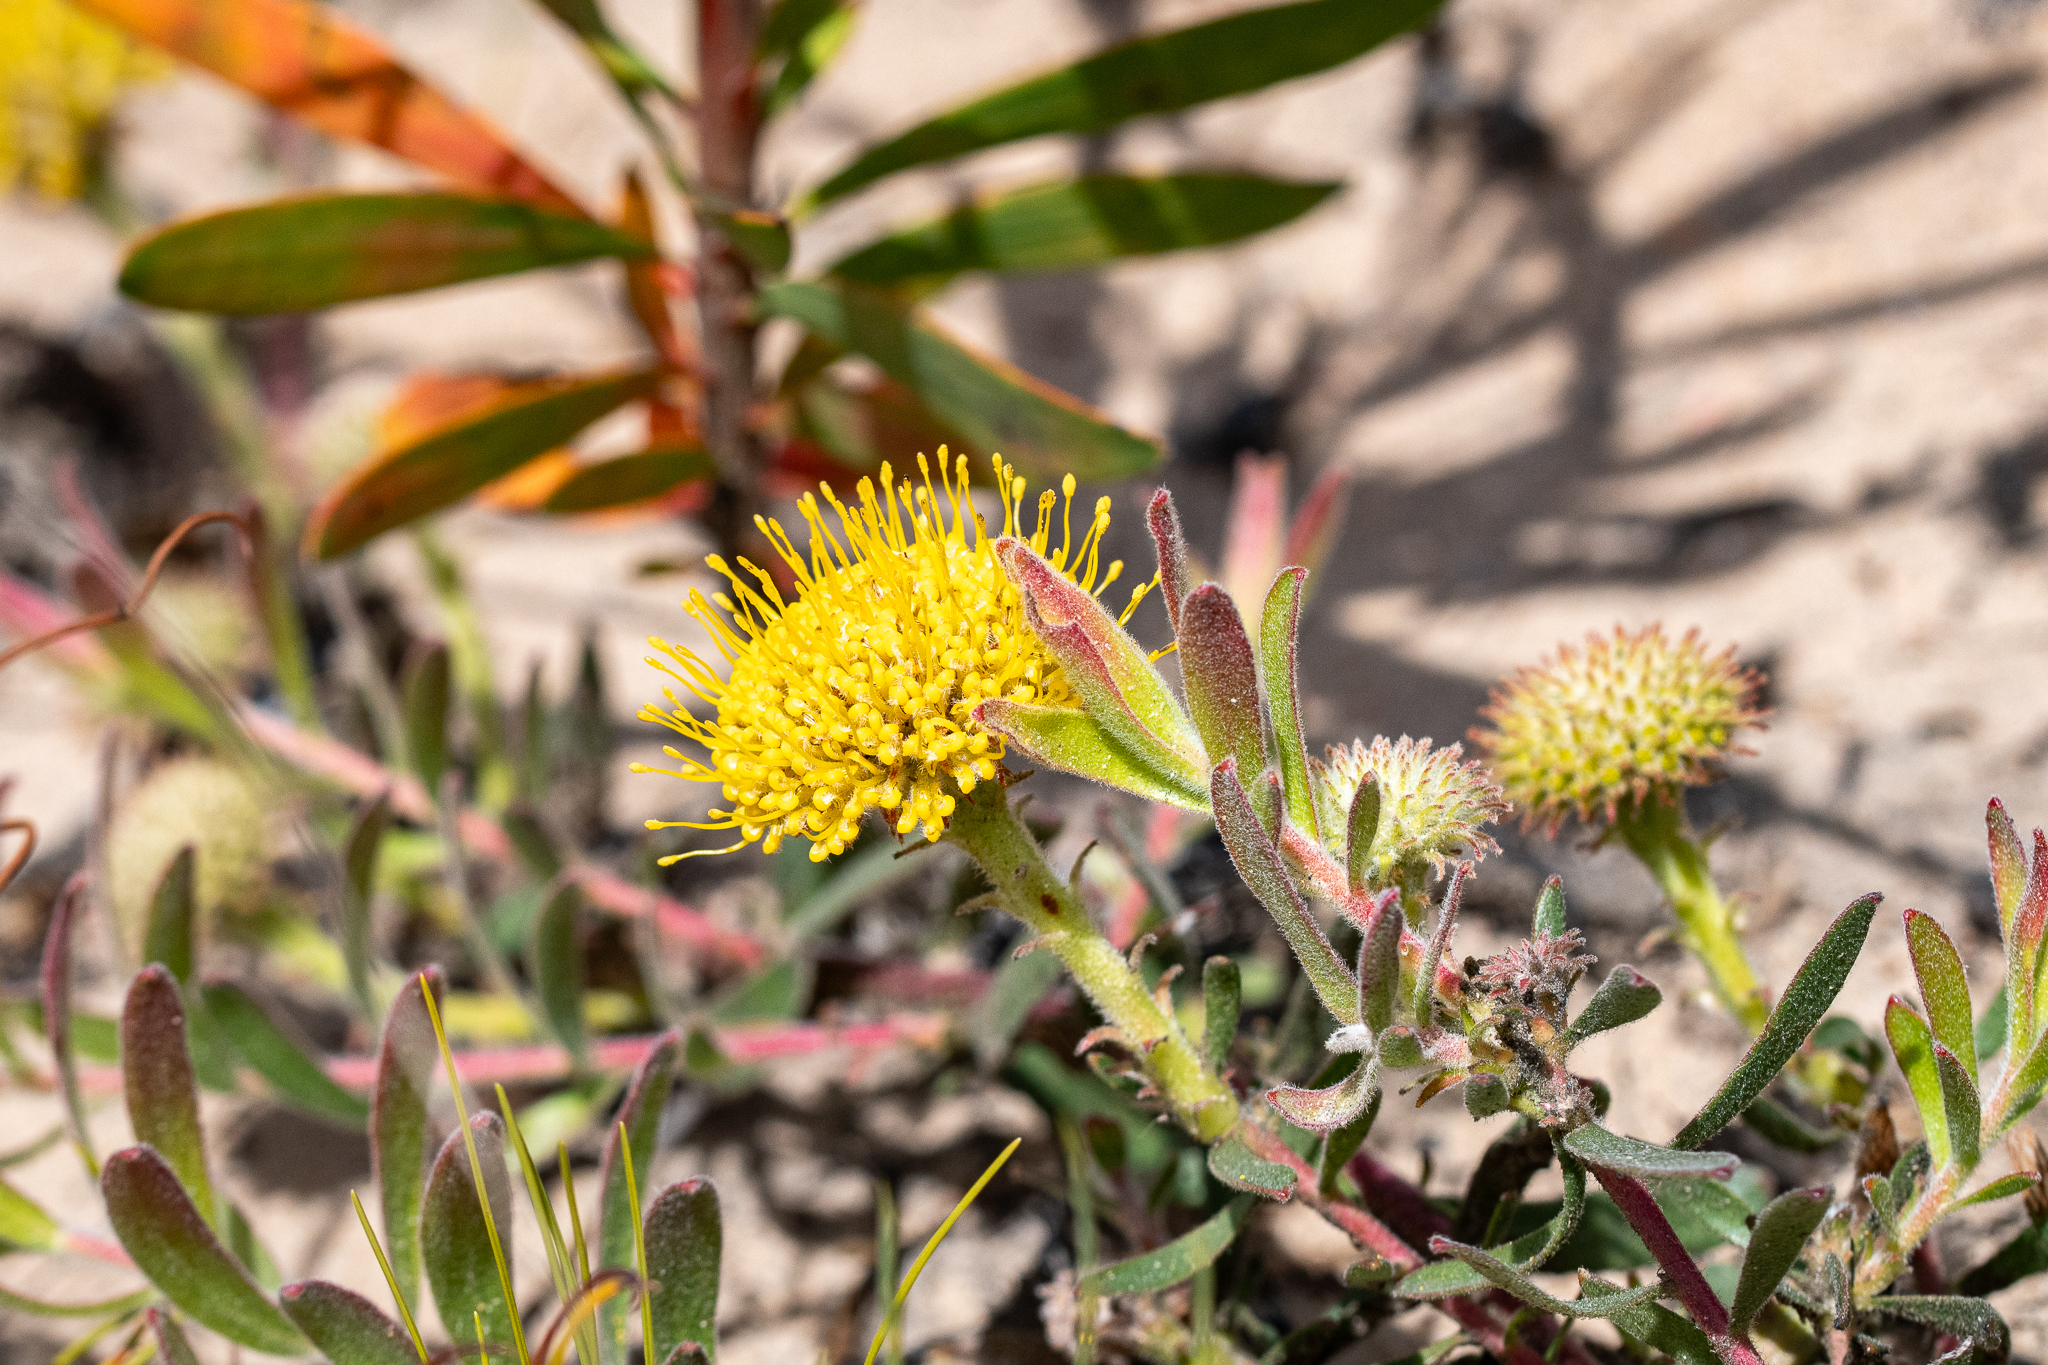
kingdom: Plantae
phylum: Tracheophyta
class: Magnoliopsida
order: Proteales
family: Proteaceae
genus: Leucospermum
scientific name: Leucospermum prostratum
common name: Yellow-trailing pincushion
